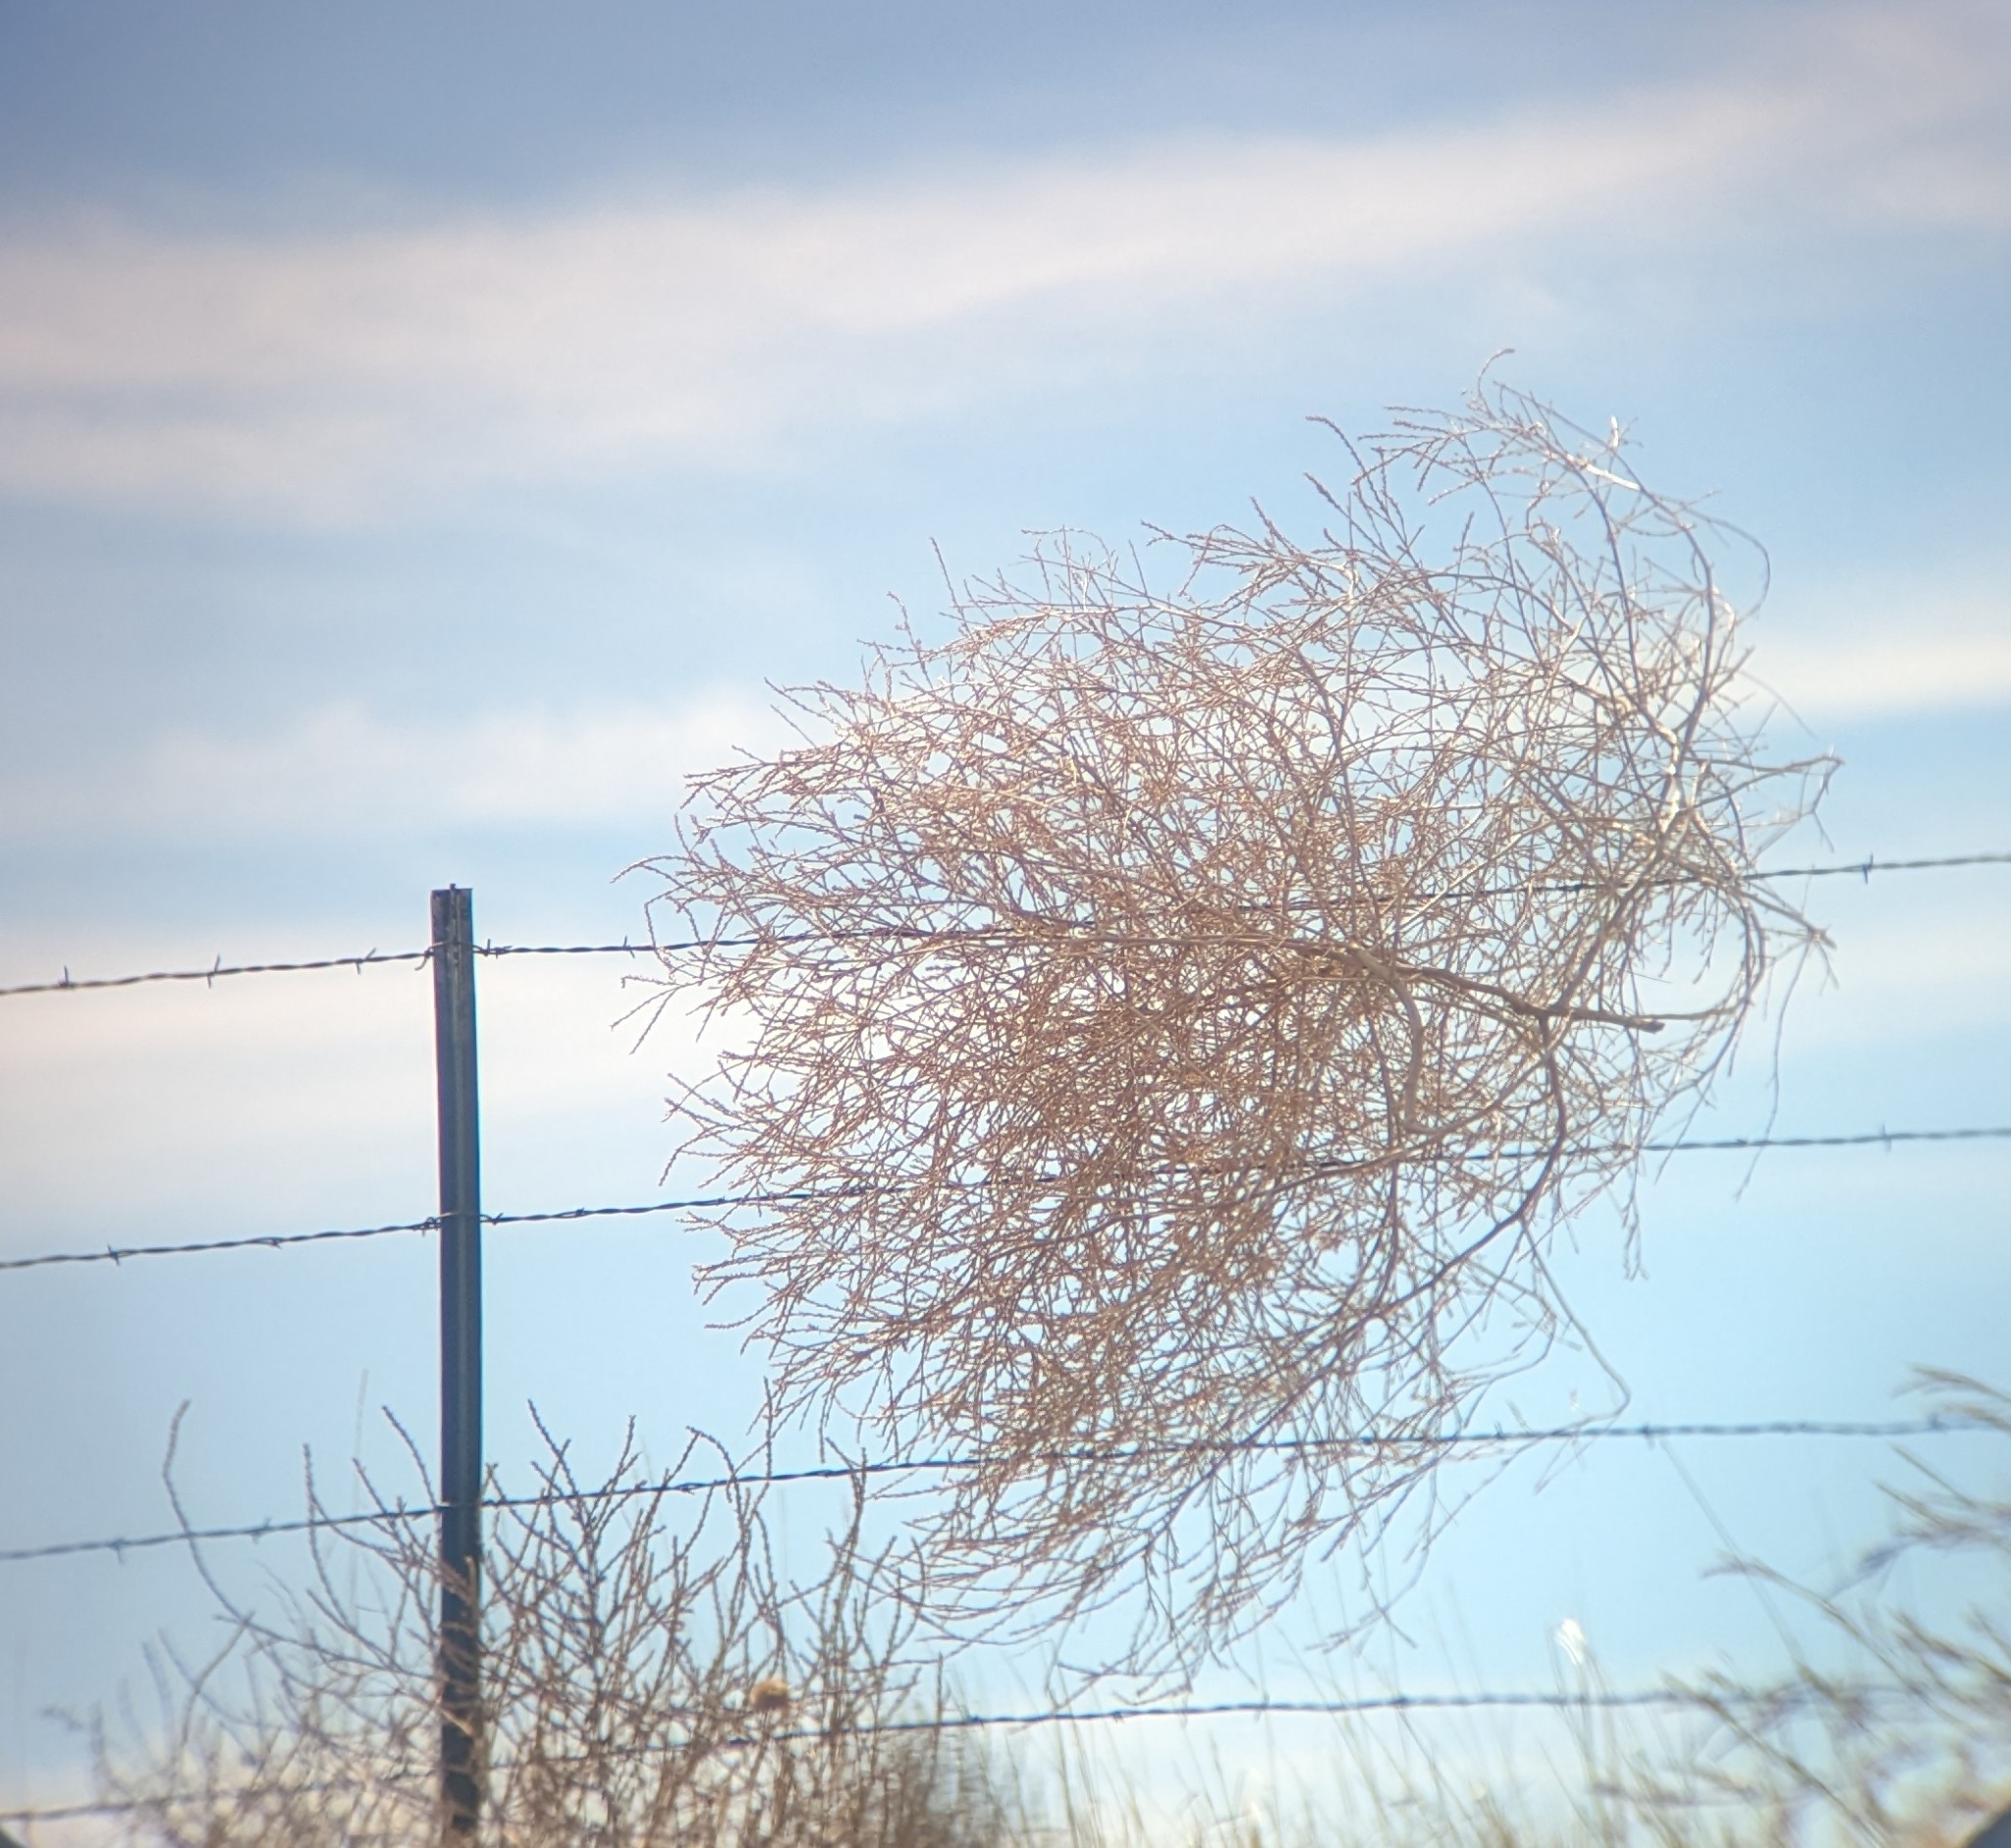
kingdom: Plantae
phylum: Tracheophyta
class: Magnoliopsida
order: Caryophyllales
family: Amaranthaceae
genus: Salsola
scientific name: Salsola tragus
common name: Prickly russian thistle
